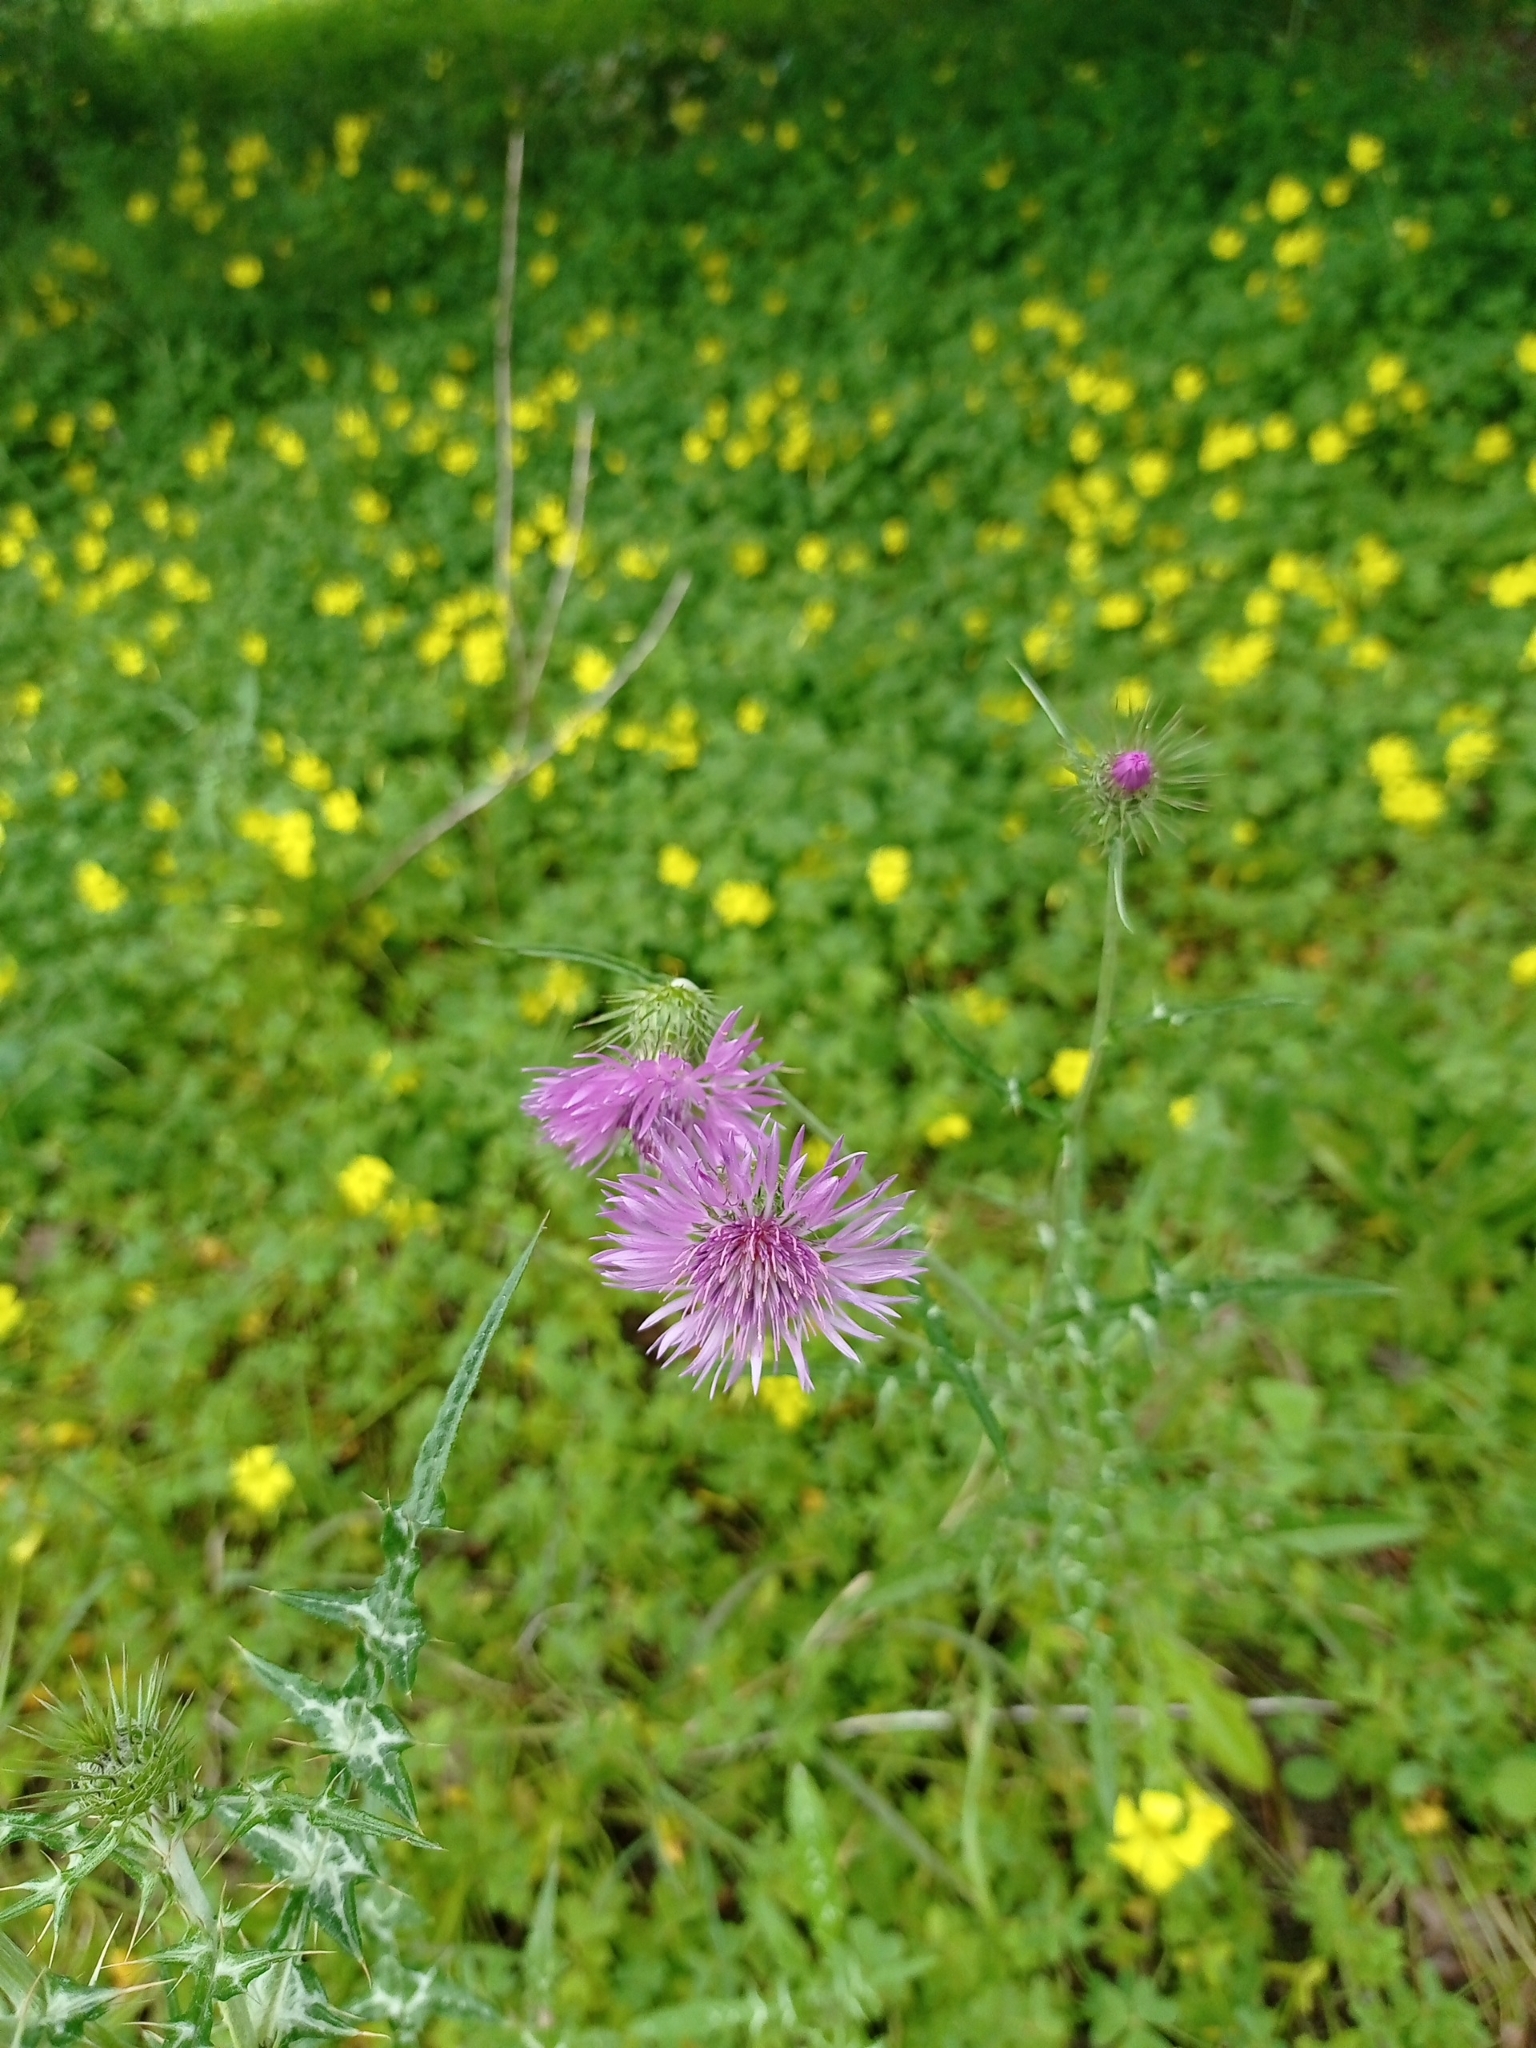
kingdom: Plantae
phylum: Tracheophyta
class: Magnoliopsida
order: Asterales
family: Asteraceae
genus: Galactites
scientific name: Galactites tomentosa
